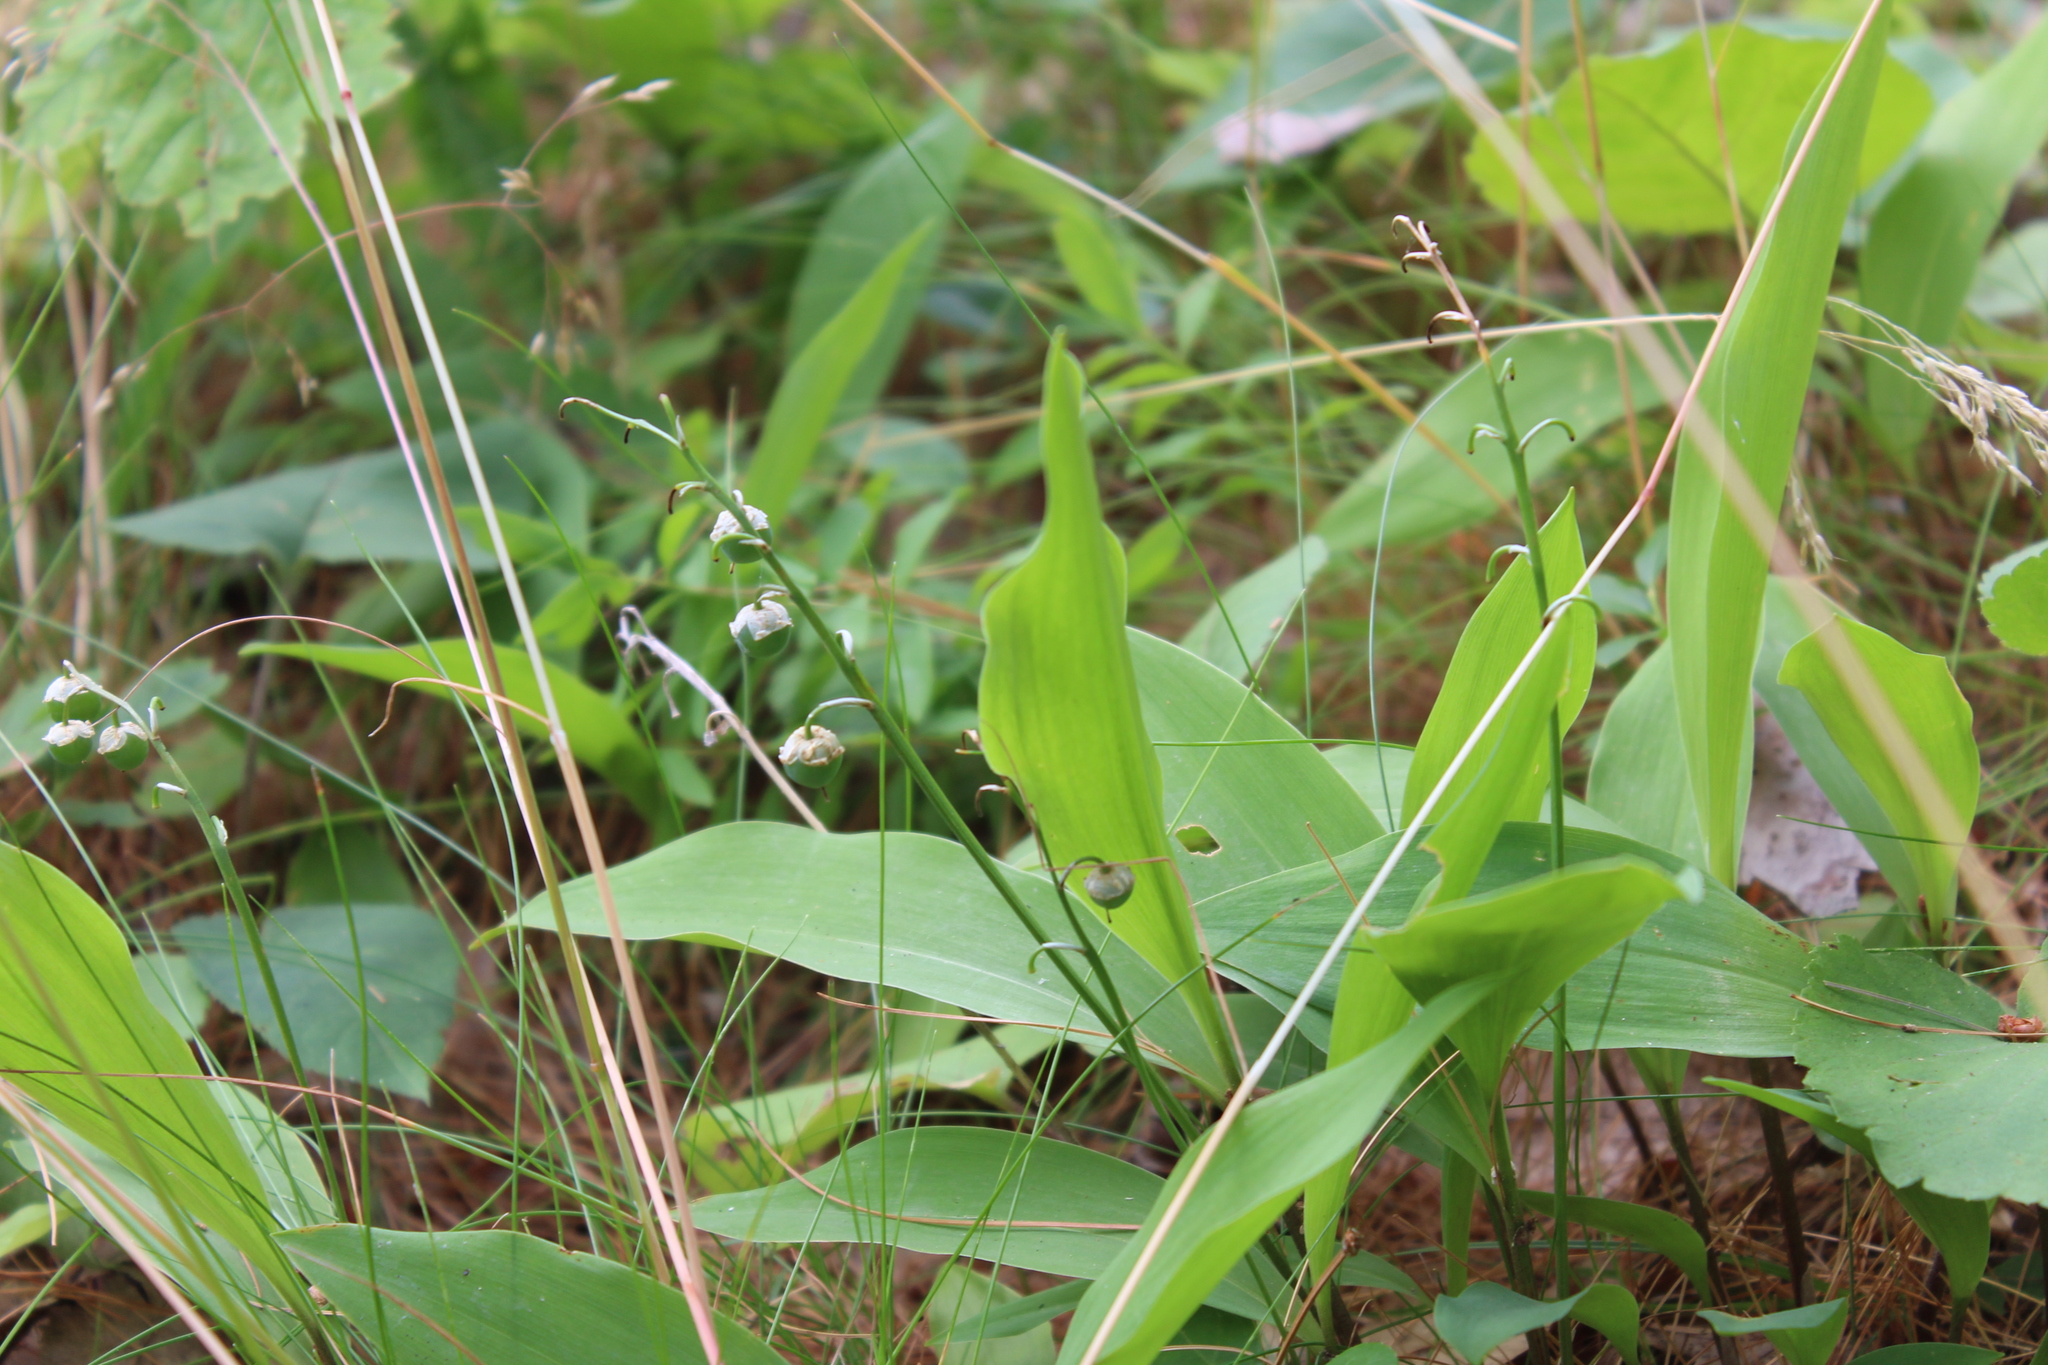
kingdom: Plantae
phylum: Tracheophyta
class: Liliopsida
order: Asparagales
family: Asparagaceae
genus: Convallaria
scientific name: Convallaria majalis
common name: Lily-of-the-valley
